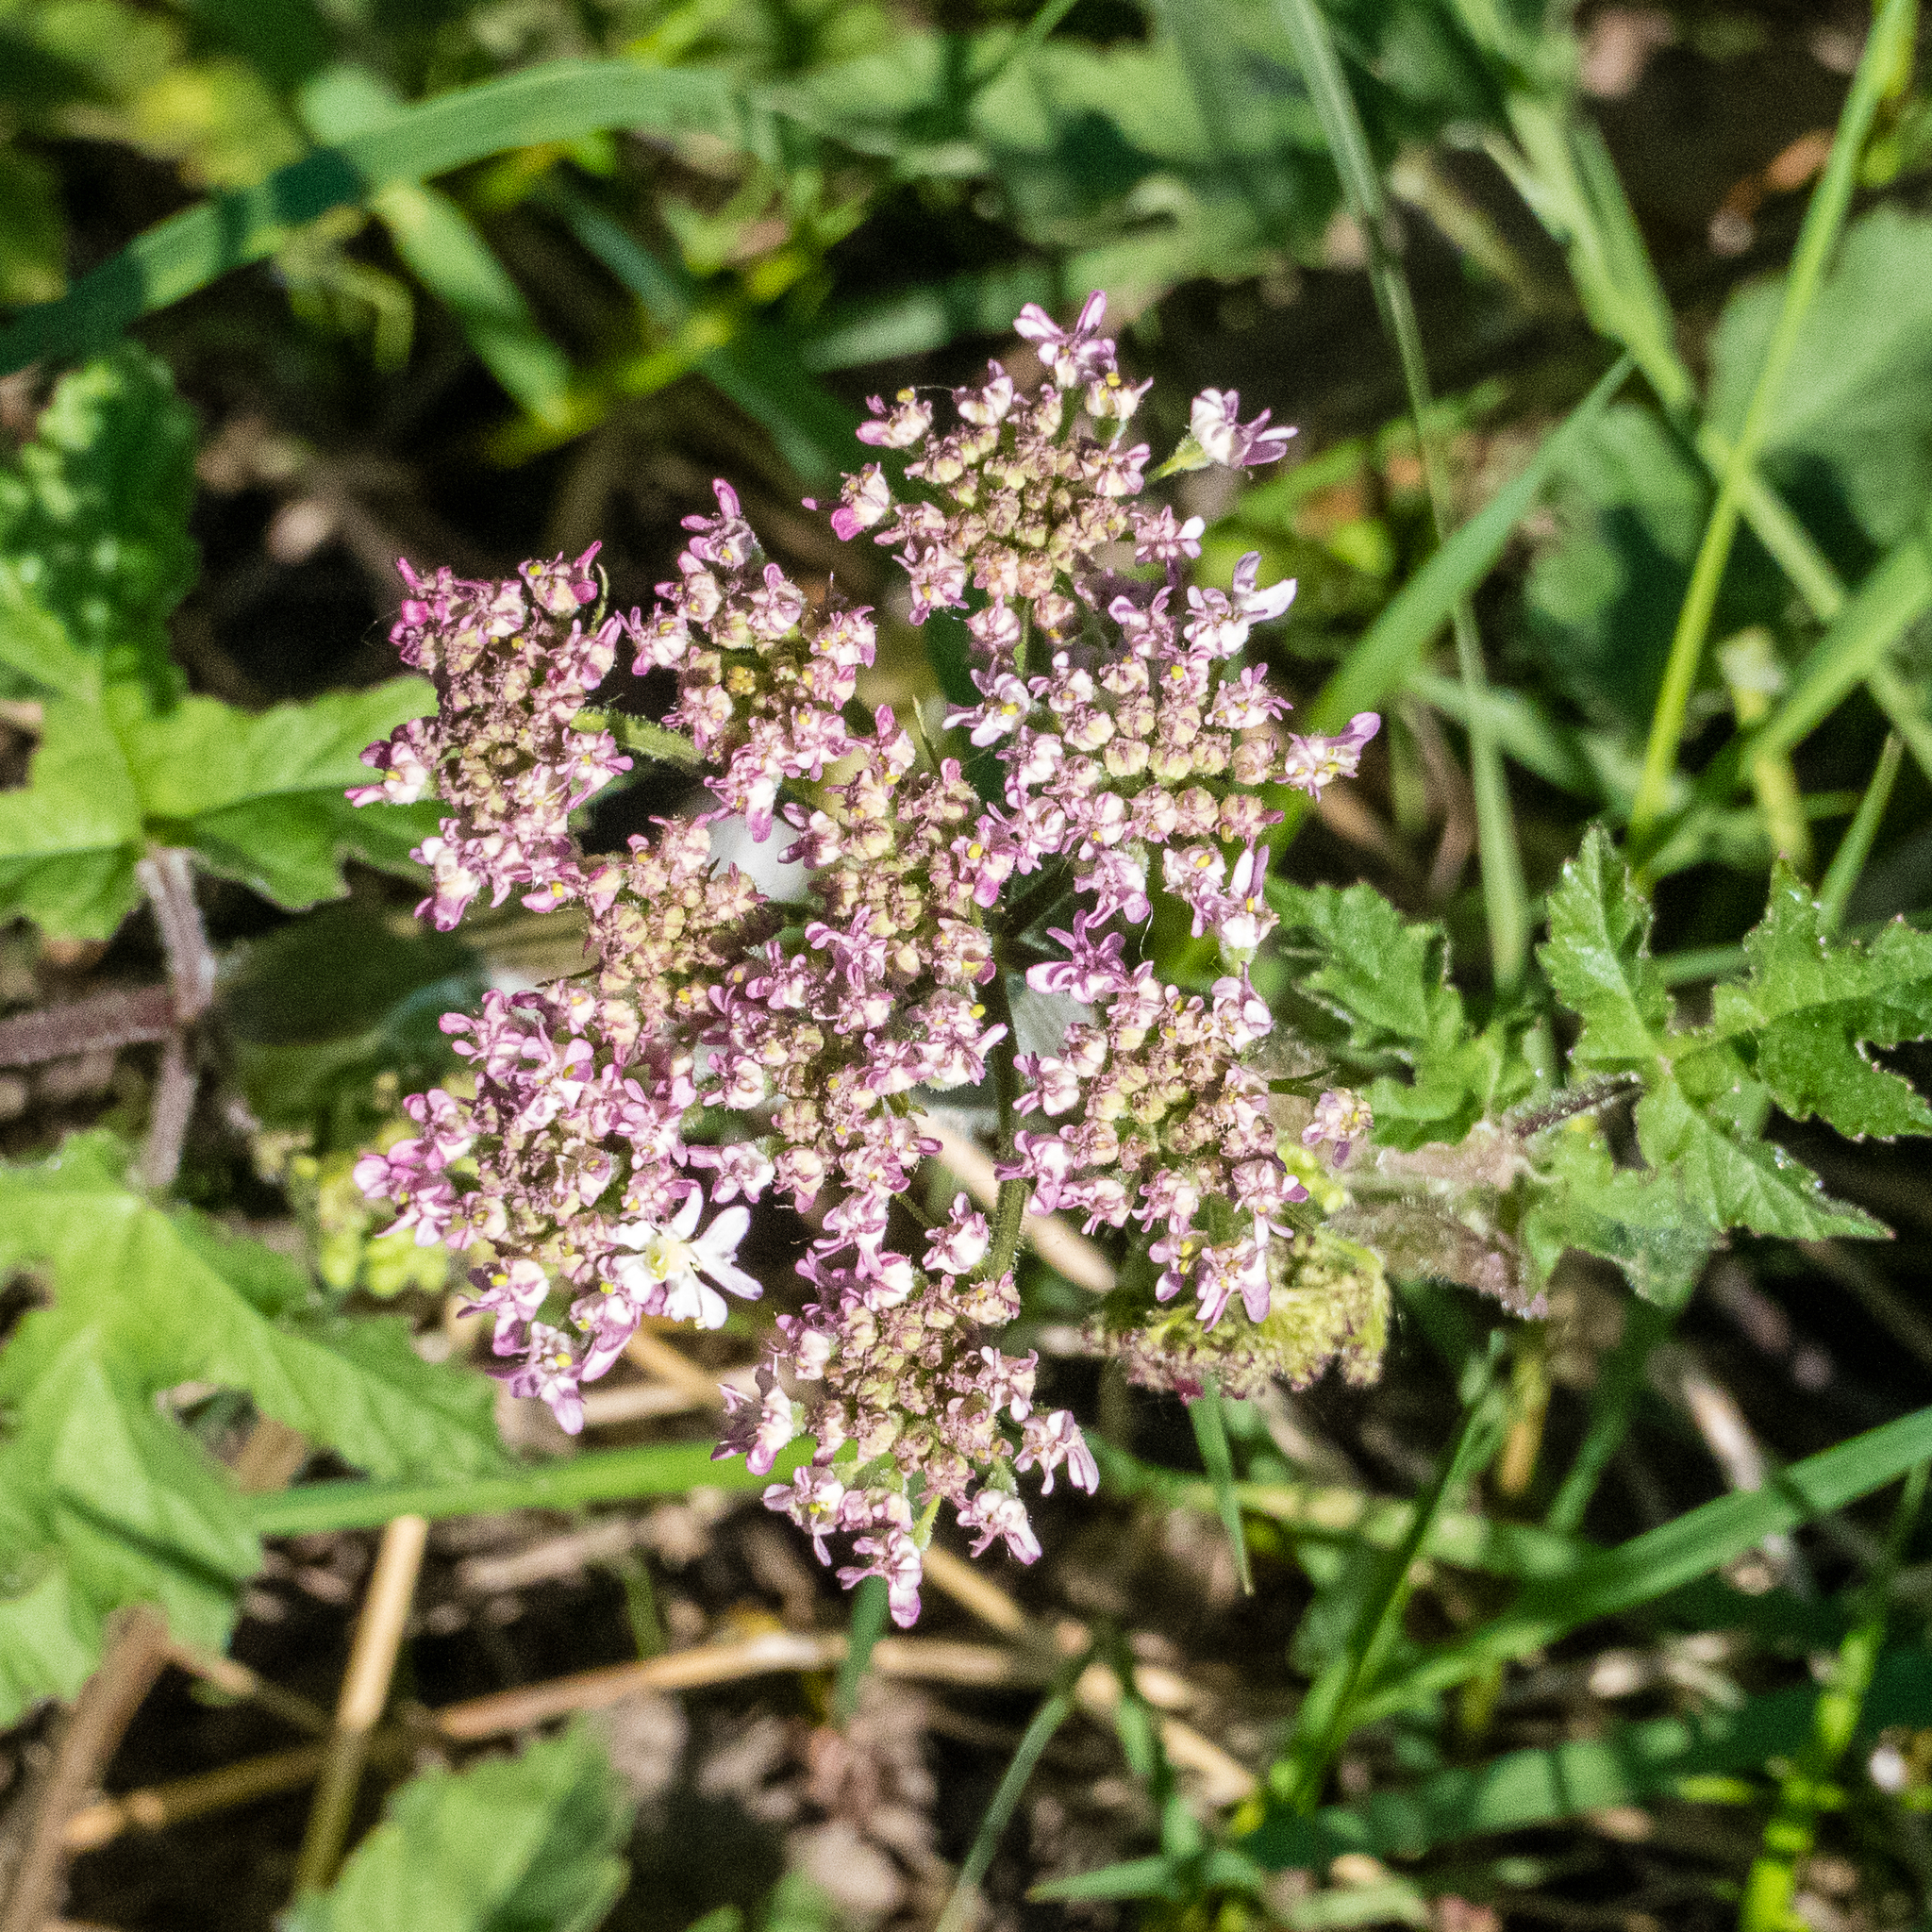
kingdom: Plantae
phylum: Tracheophyta
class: Magnoliopsida
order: Apiales
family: Apiaceae
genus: Heracleum
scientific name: Heracleum sphondylium
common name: Hogweed
